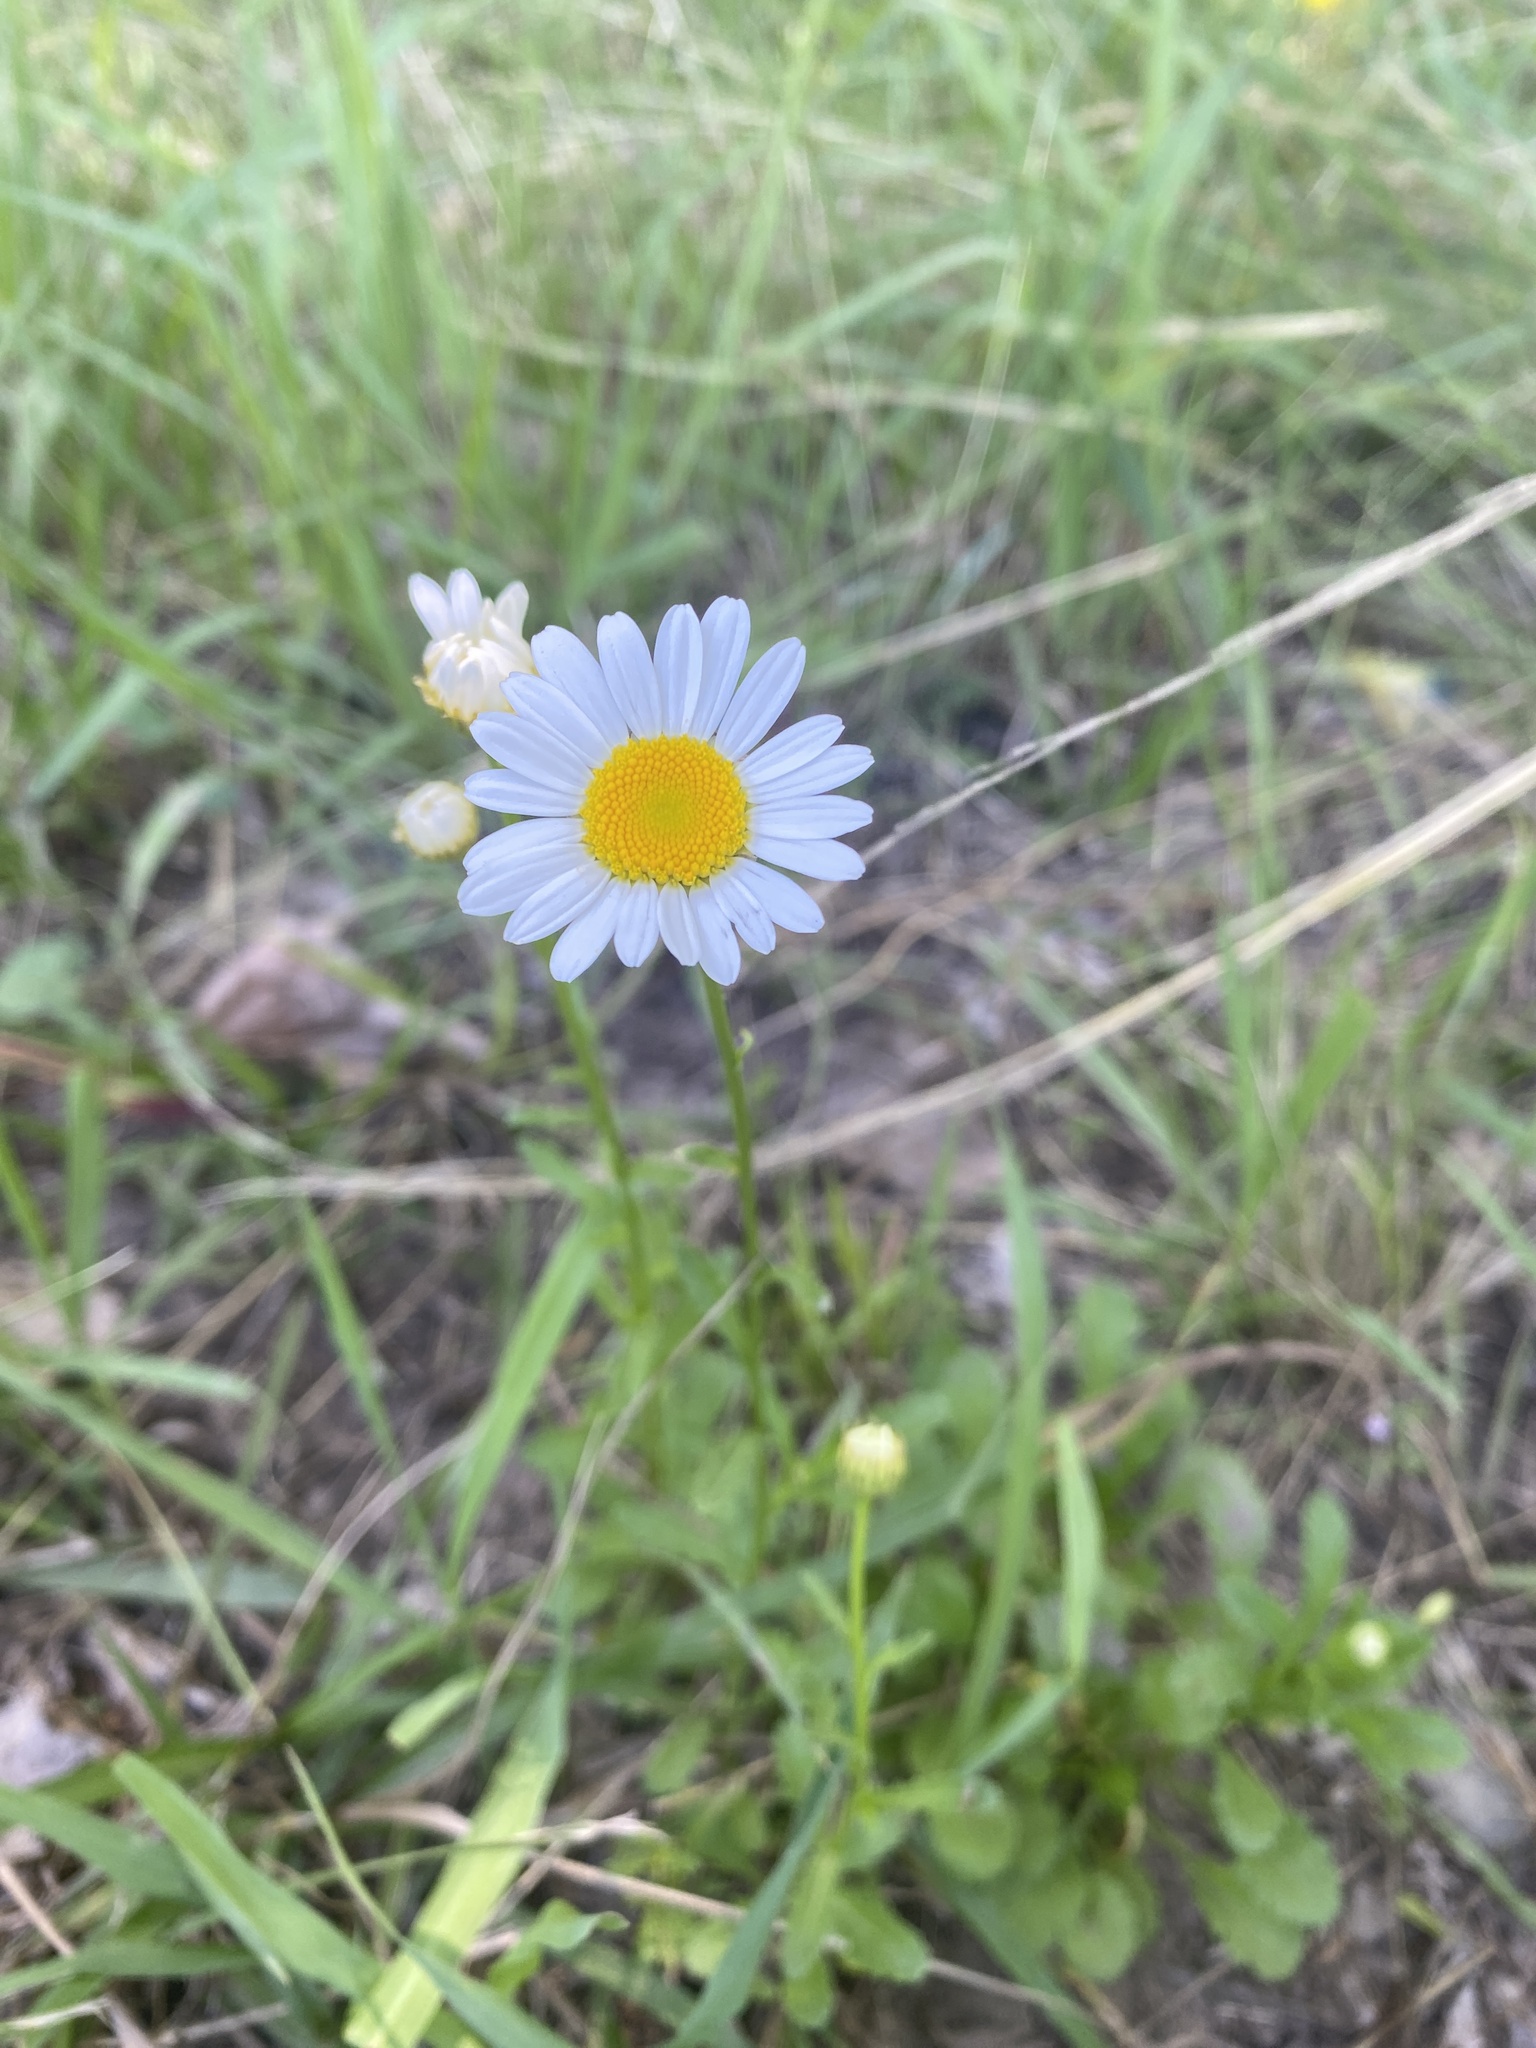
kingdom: Plantae
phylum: Tracheophyta
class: Magnoliopsida
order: Asterales
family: Asteraceae
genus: Leucanthemum
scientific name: Leucanthemum vulgare
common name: Oxeye daisy
